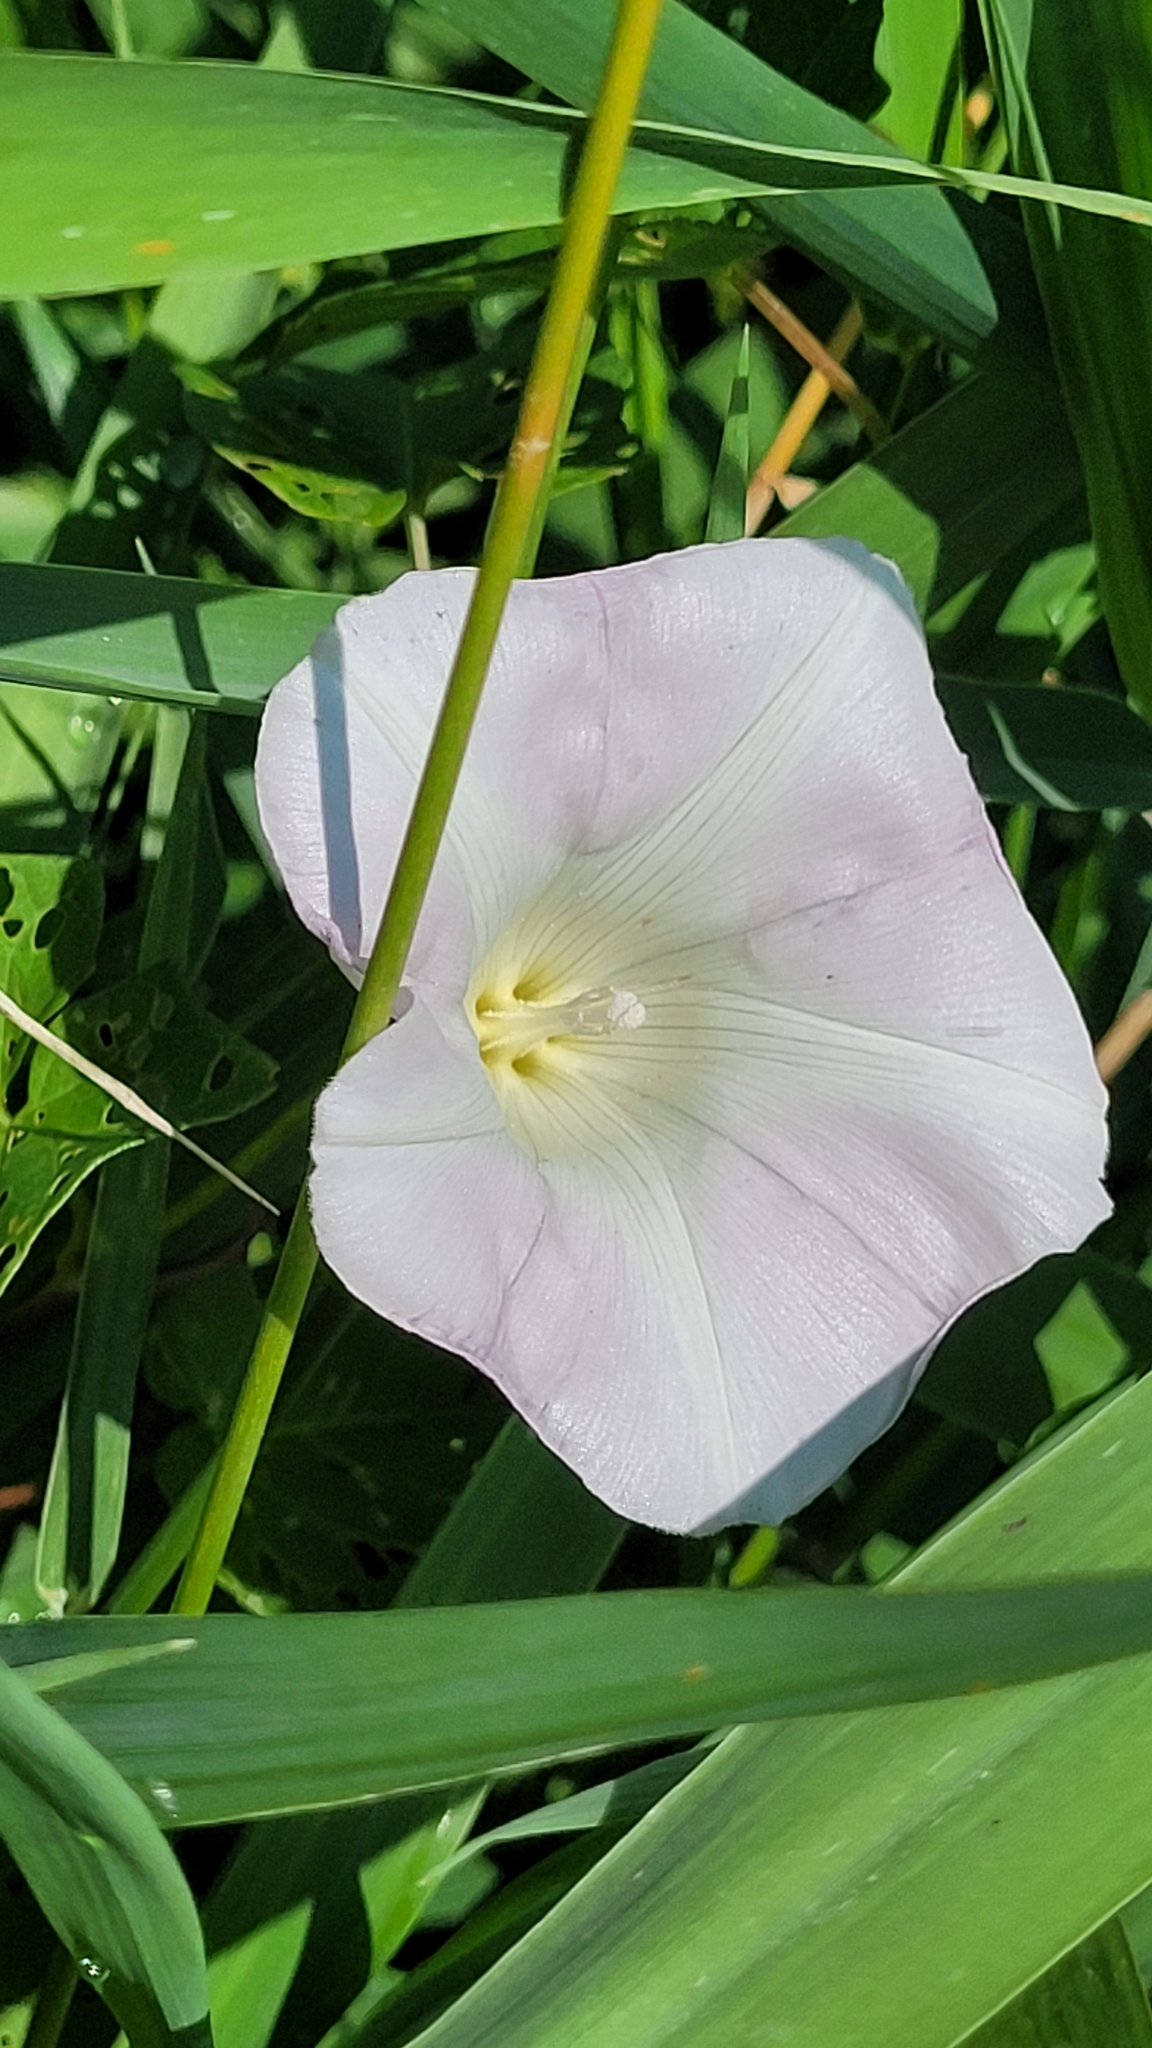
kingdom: Plantae
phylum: Tracheophyta
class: Magnoliopsida
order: Solanales
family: Convolvulaceae
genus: Calystegia
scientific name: Calystegia sepium
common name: Hedge bindweed
